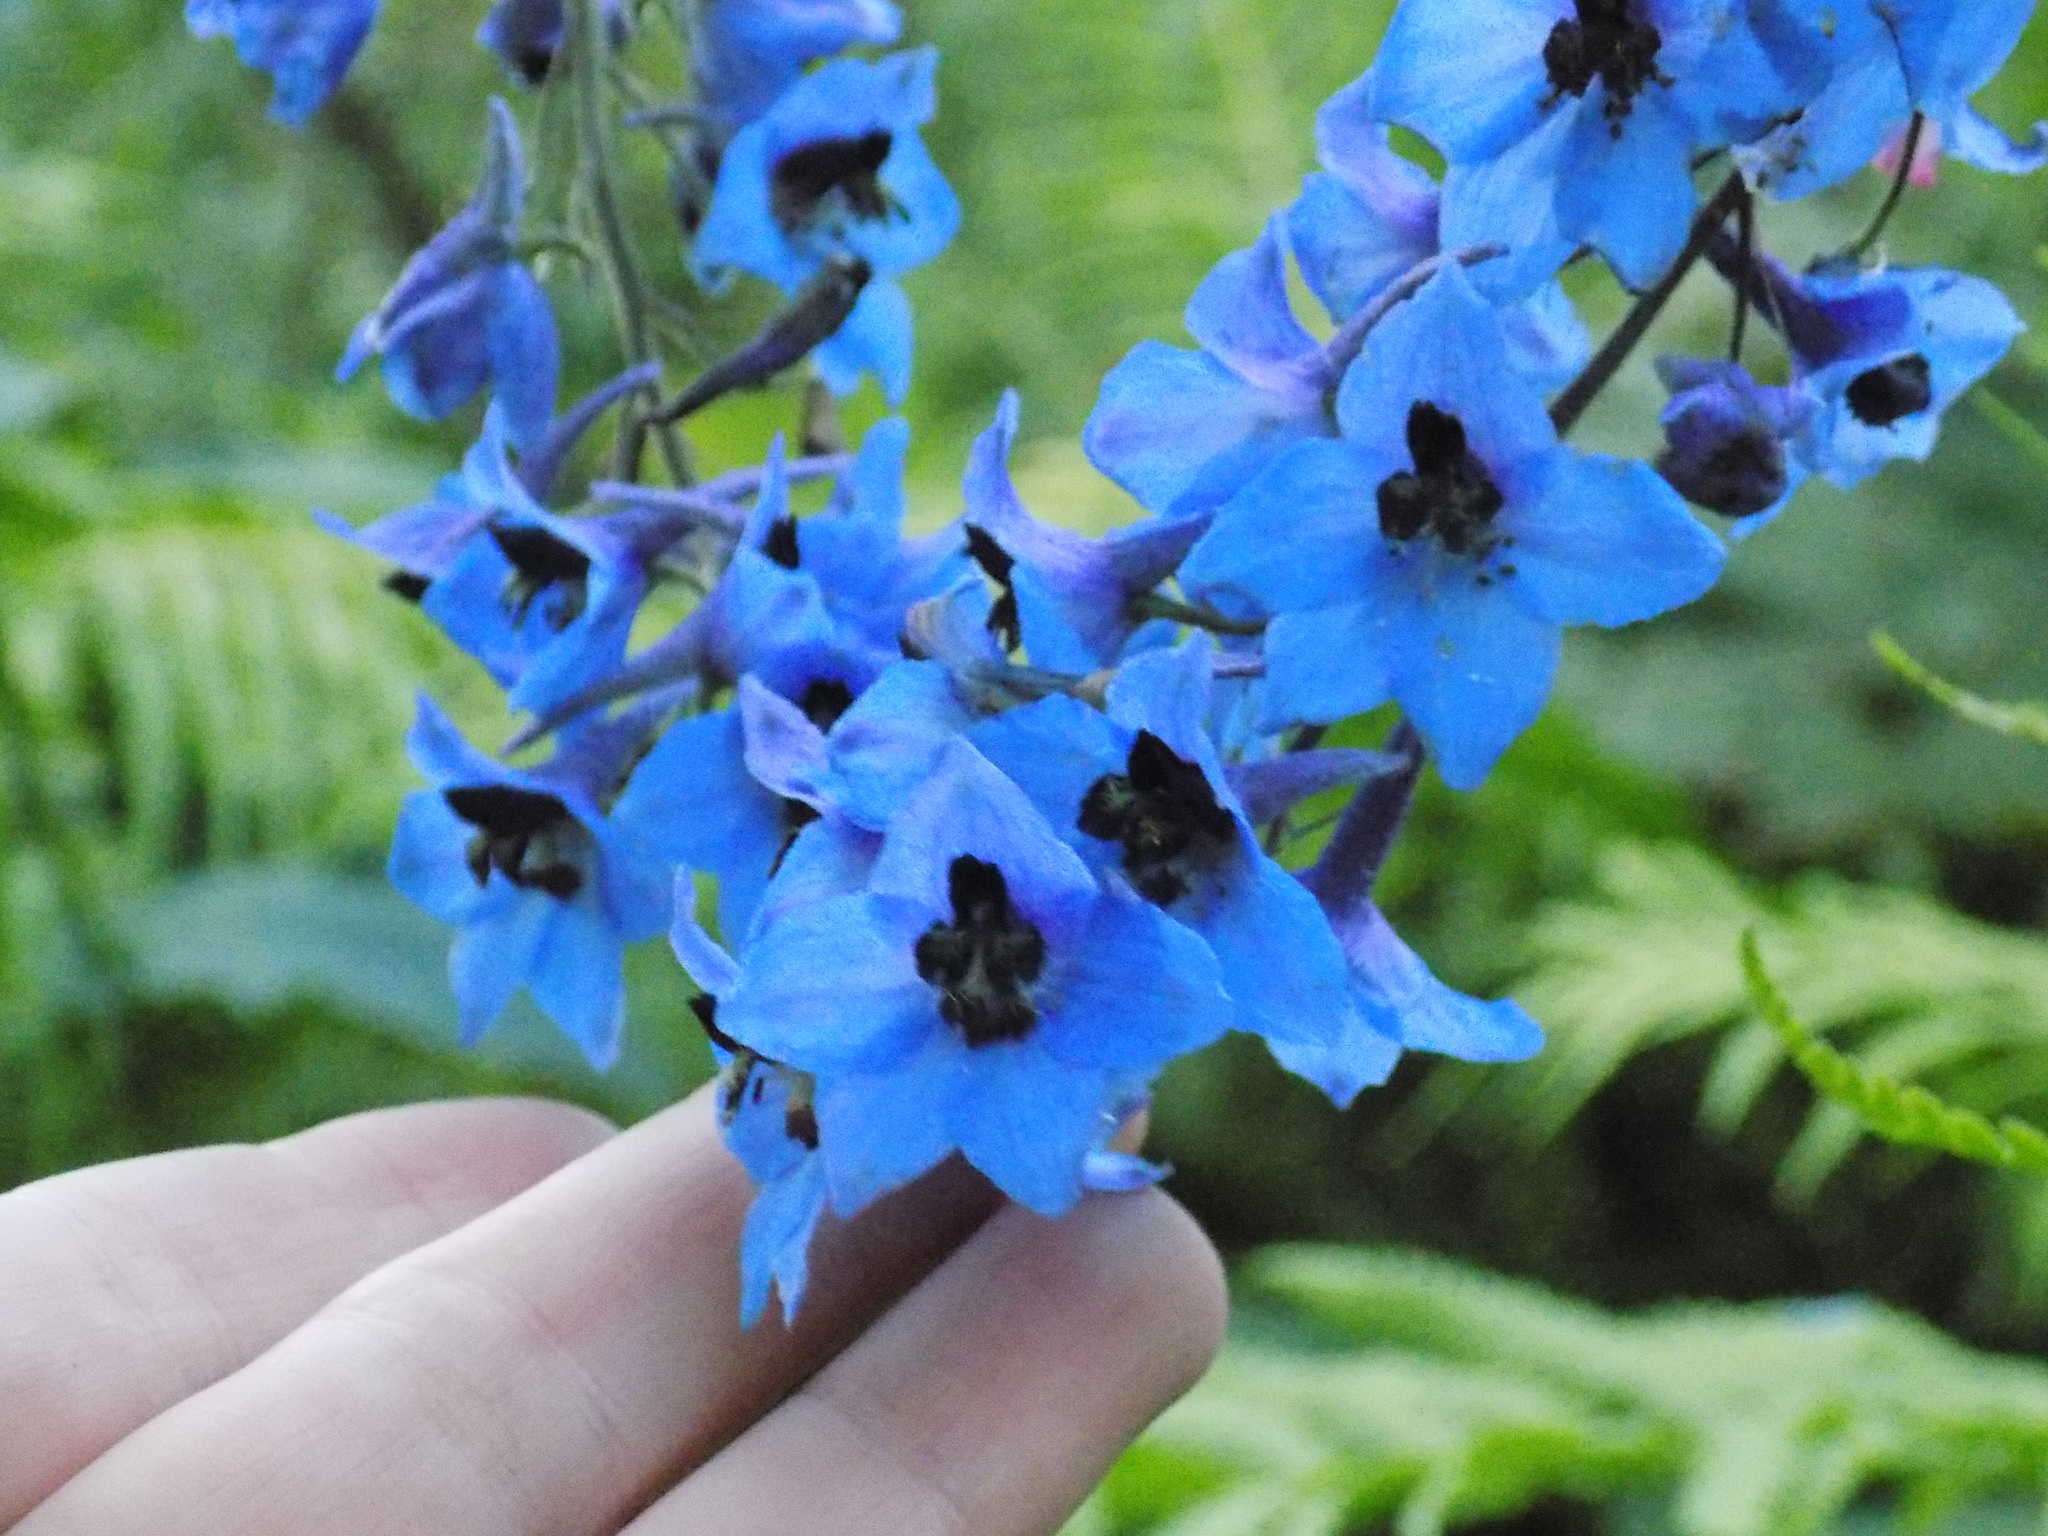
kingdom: Plantae
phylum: Tracheophyta
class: Magnoliopsida
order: Ranunculales
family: Ranunculaceae
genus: Delphinium
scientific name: Delphinium elatum
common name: Candle larkspur
